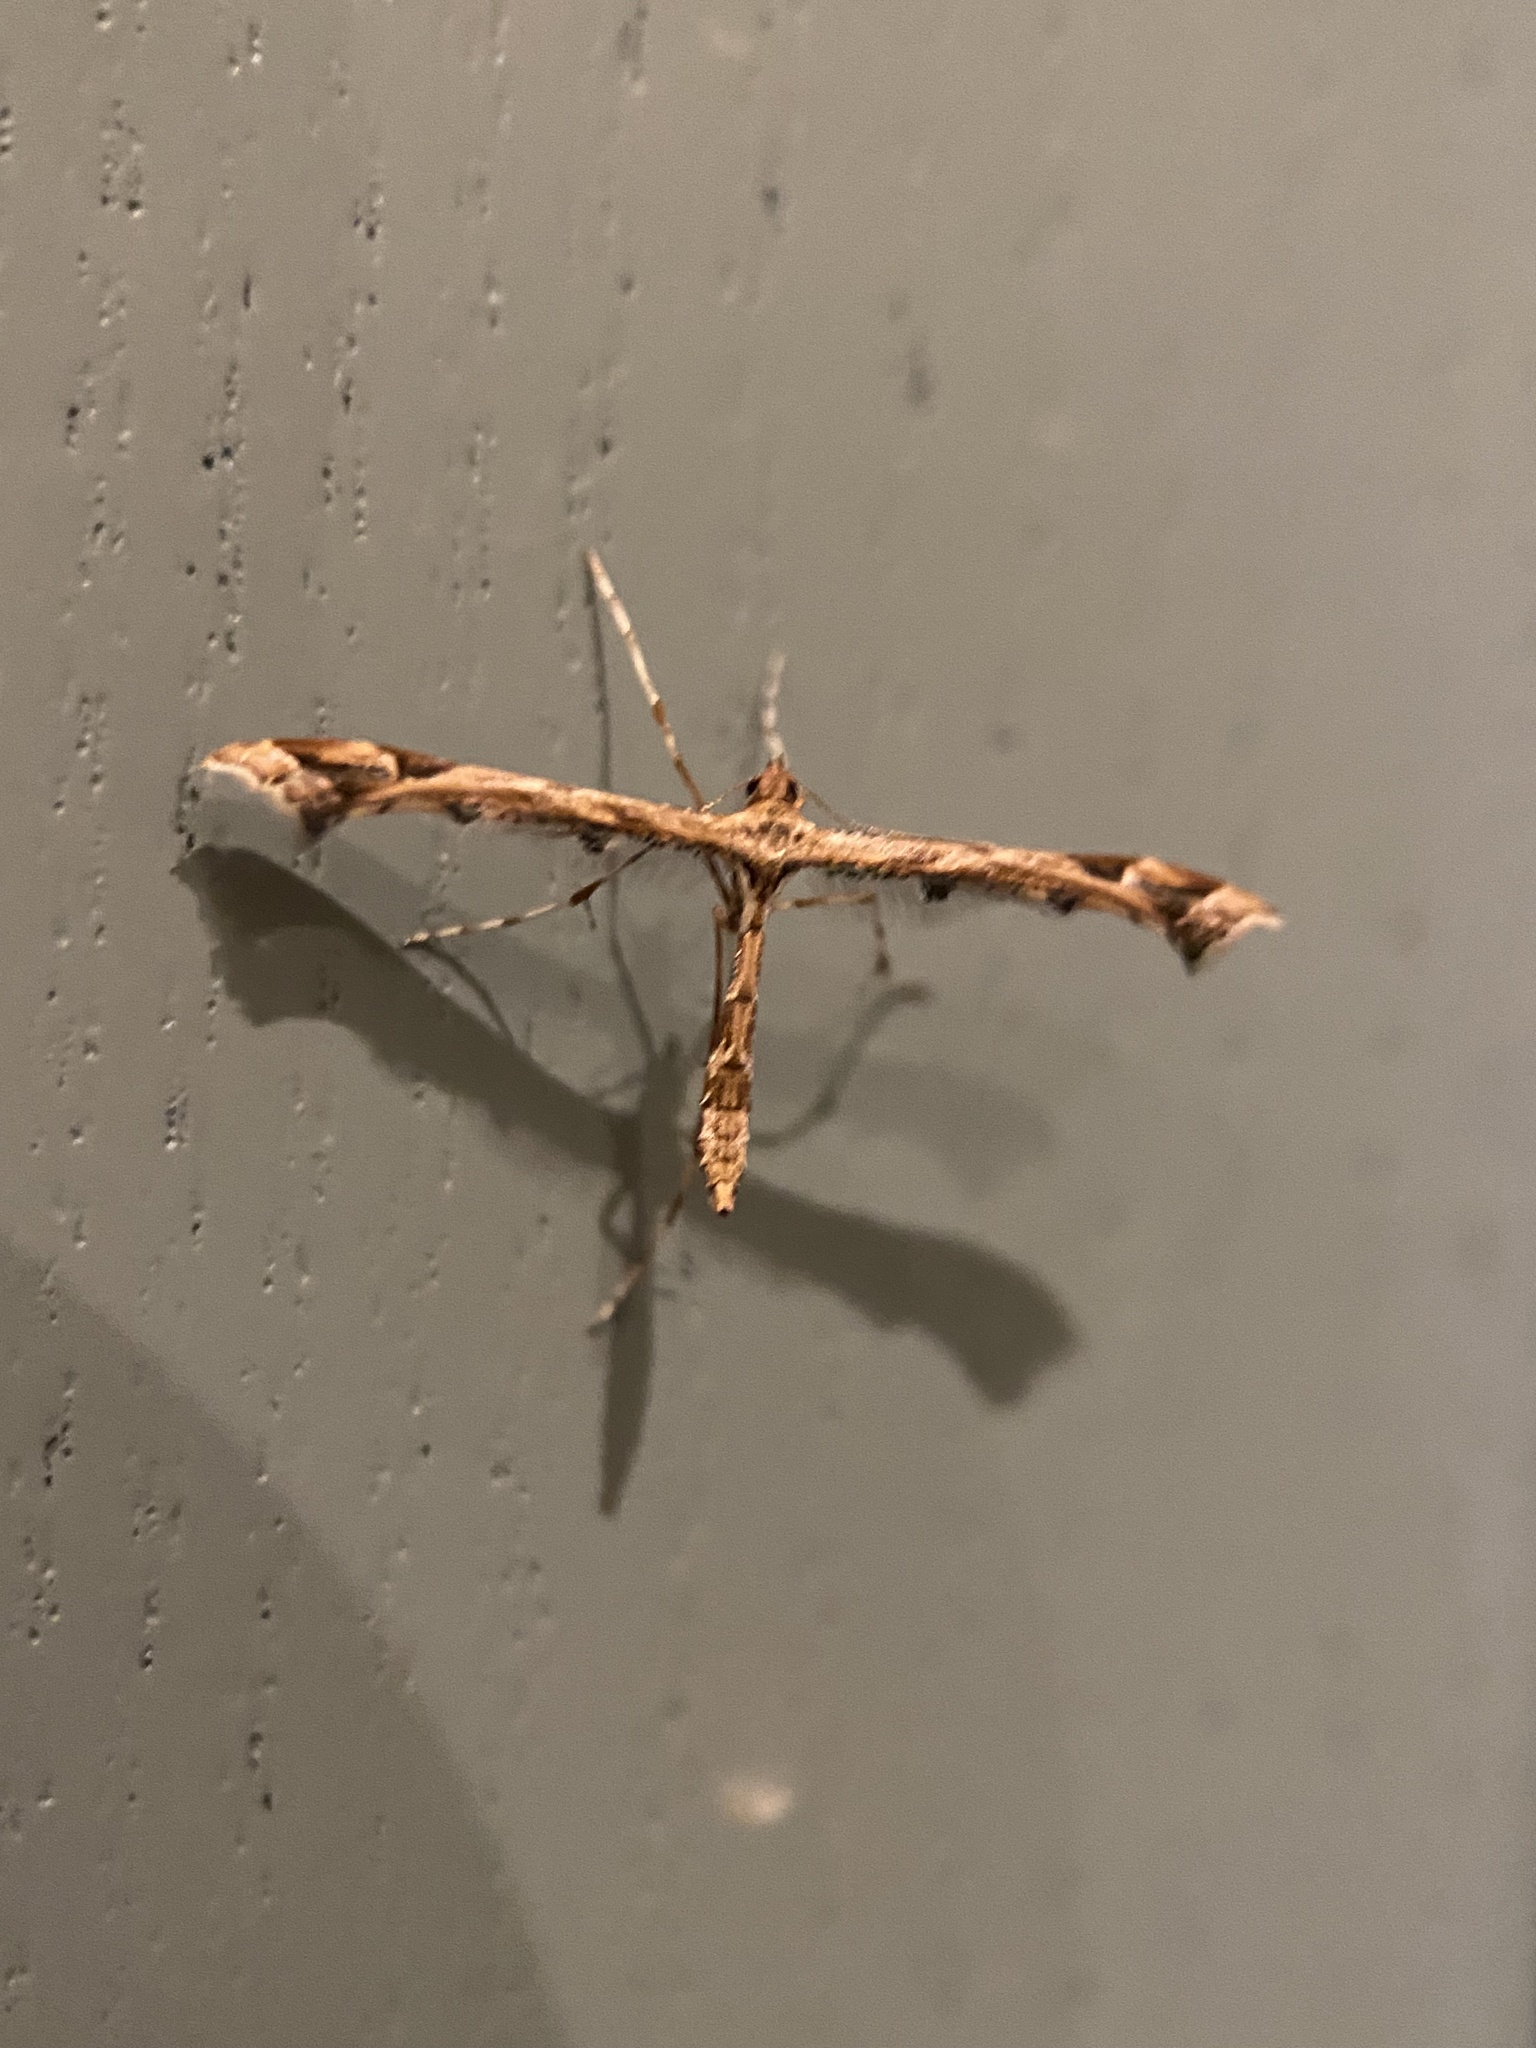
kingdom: Animalia
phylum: Arthropoda
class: Insecta
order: Lepidoptera
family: Pterophoridae
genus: Amblyptilia
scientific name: Amblyptilia acanthadactyla
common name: Beautiful plume
